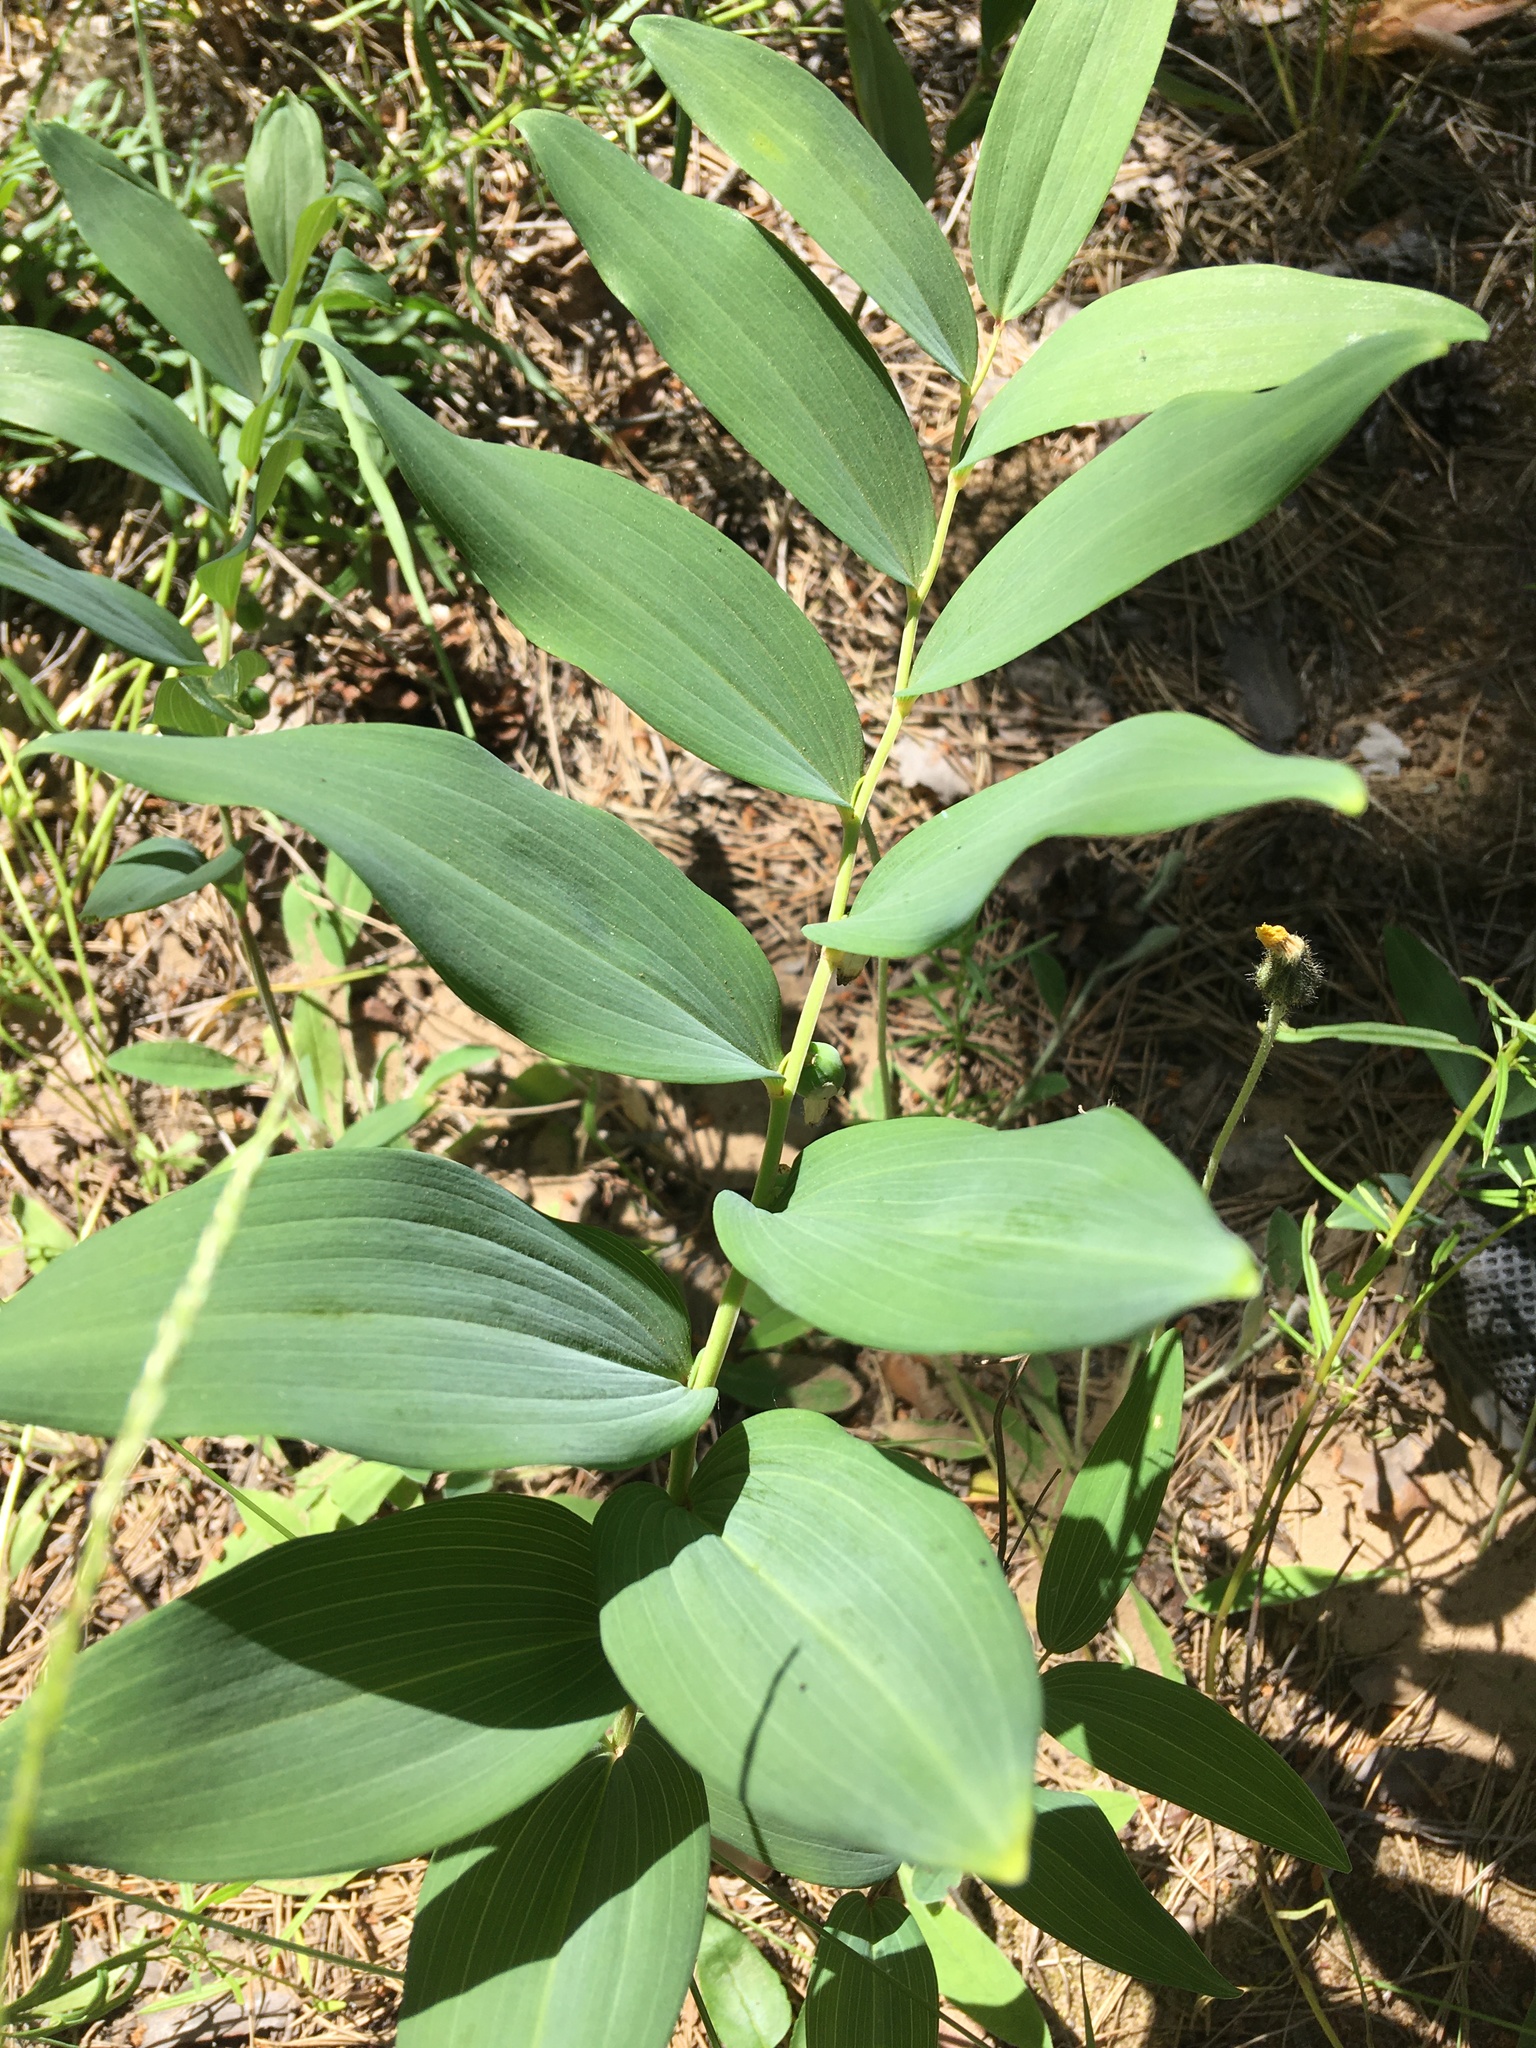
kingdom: Plantae
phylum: Tracheophyta
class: Liliopsida
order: Asparagales
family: Asparagaceae
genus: Polygonatum
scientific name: Polygonatum odoratum
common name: Angular solomon's-seal
